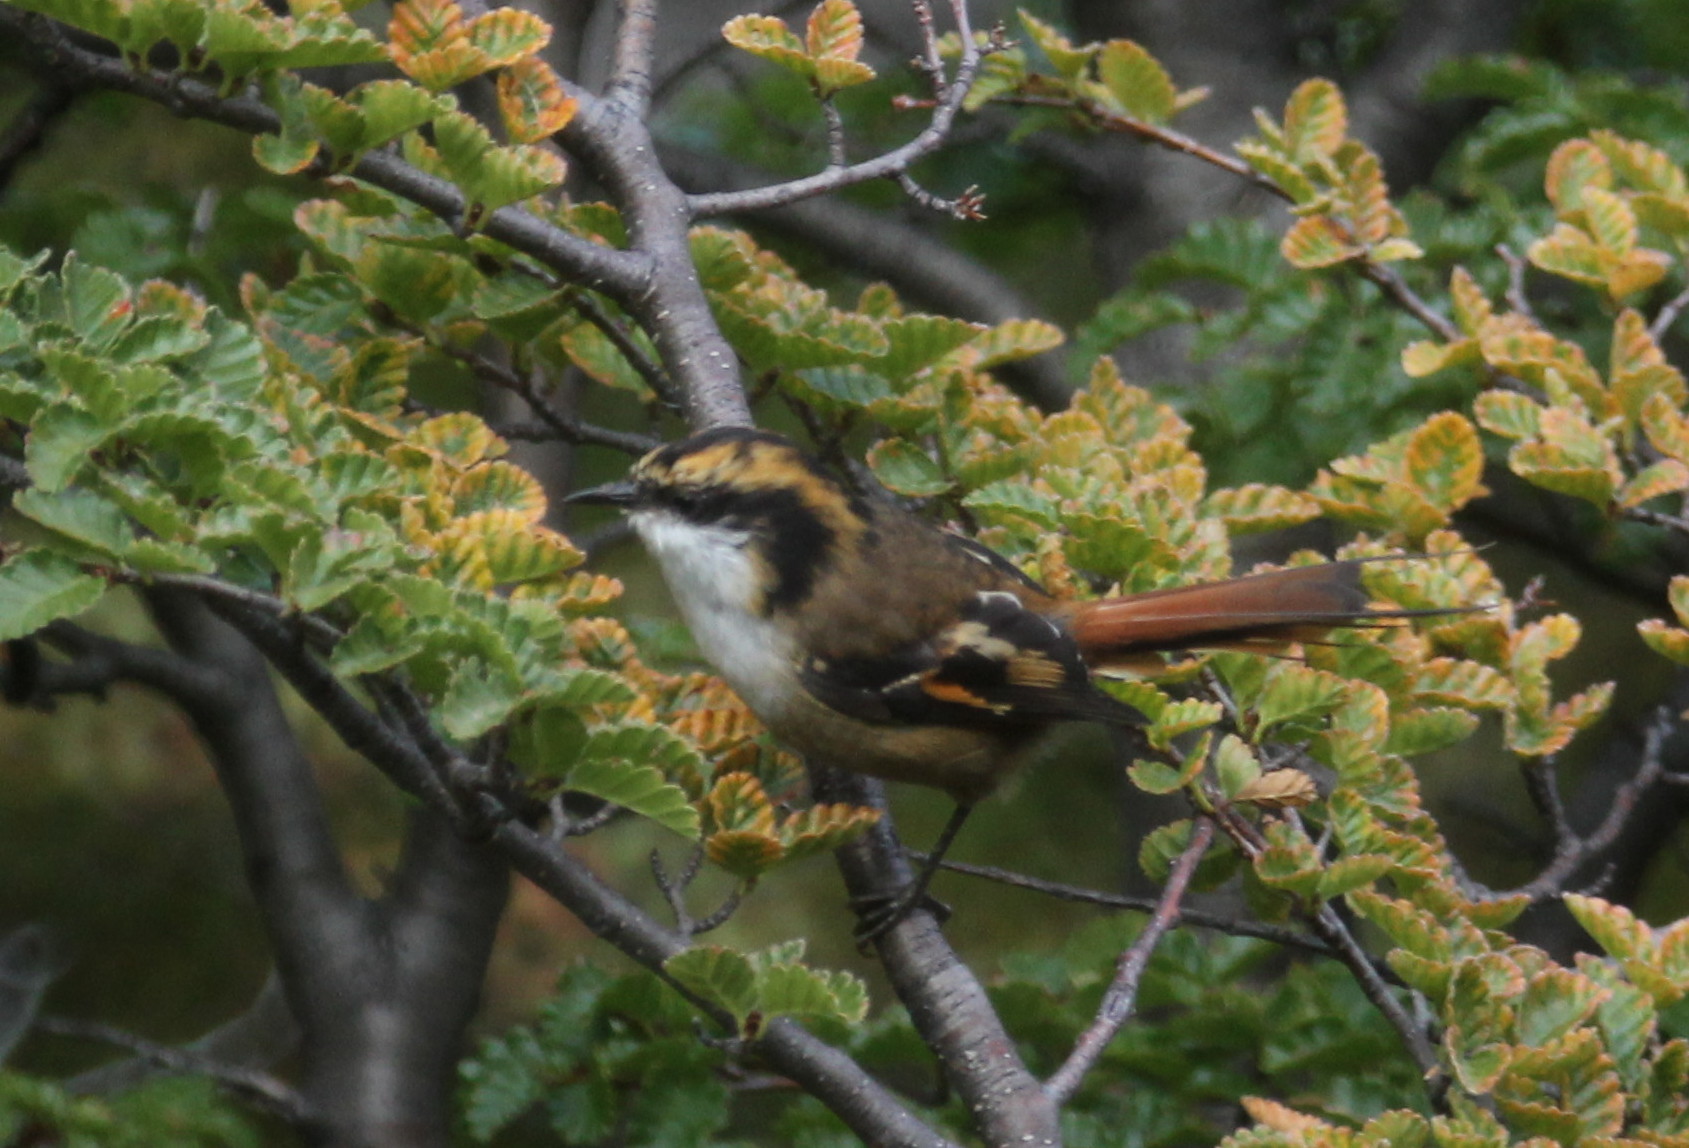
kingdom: Animalia
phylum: Chordata
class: Aves
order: Passeriformes
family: Furnariidae
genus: Aphrastura
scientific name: Aphrastura spinicauda
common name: Thorn-tailed rayadito
